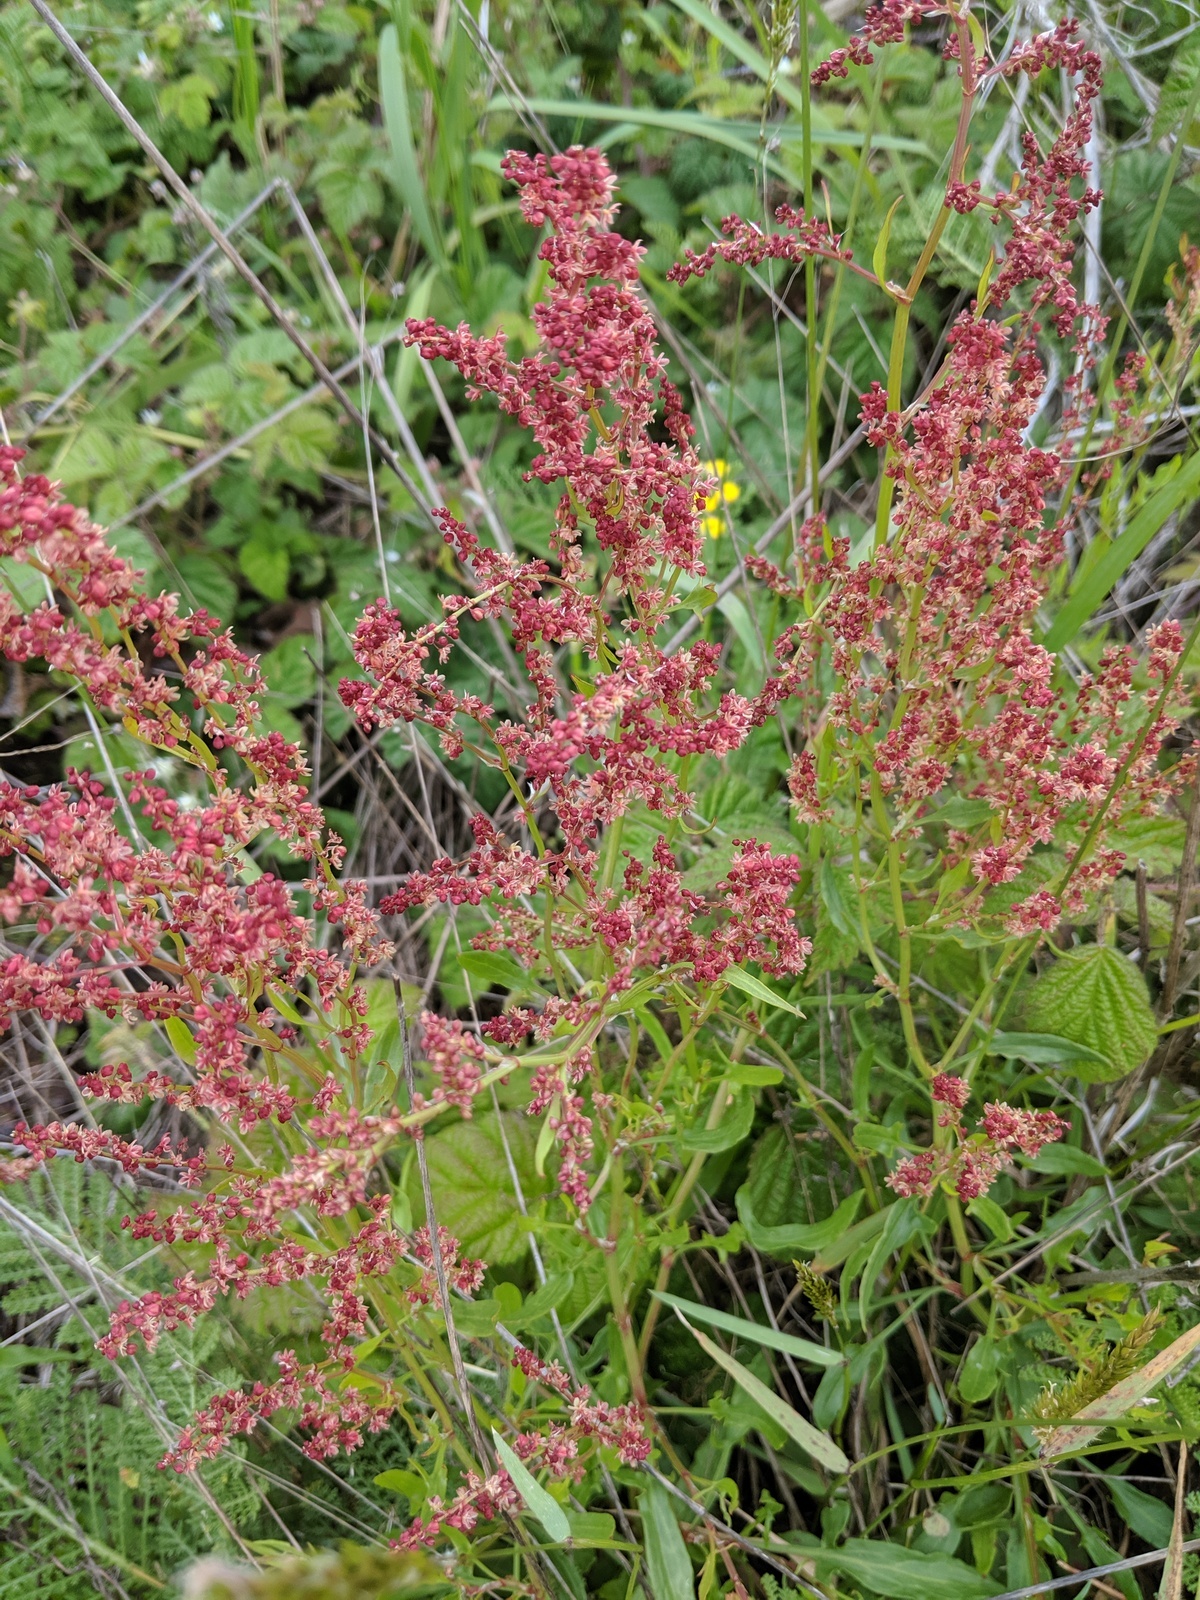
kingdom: Plantae
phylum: Tracheophyta
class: Magnoliopsida
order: Caryophyllales
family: Polygonaceae
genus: Rumex
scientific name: Rumex acetosella
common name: Common sheep sorrel
